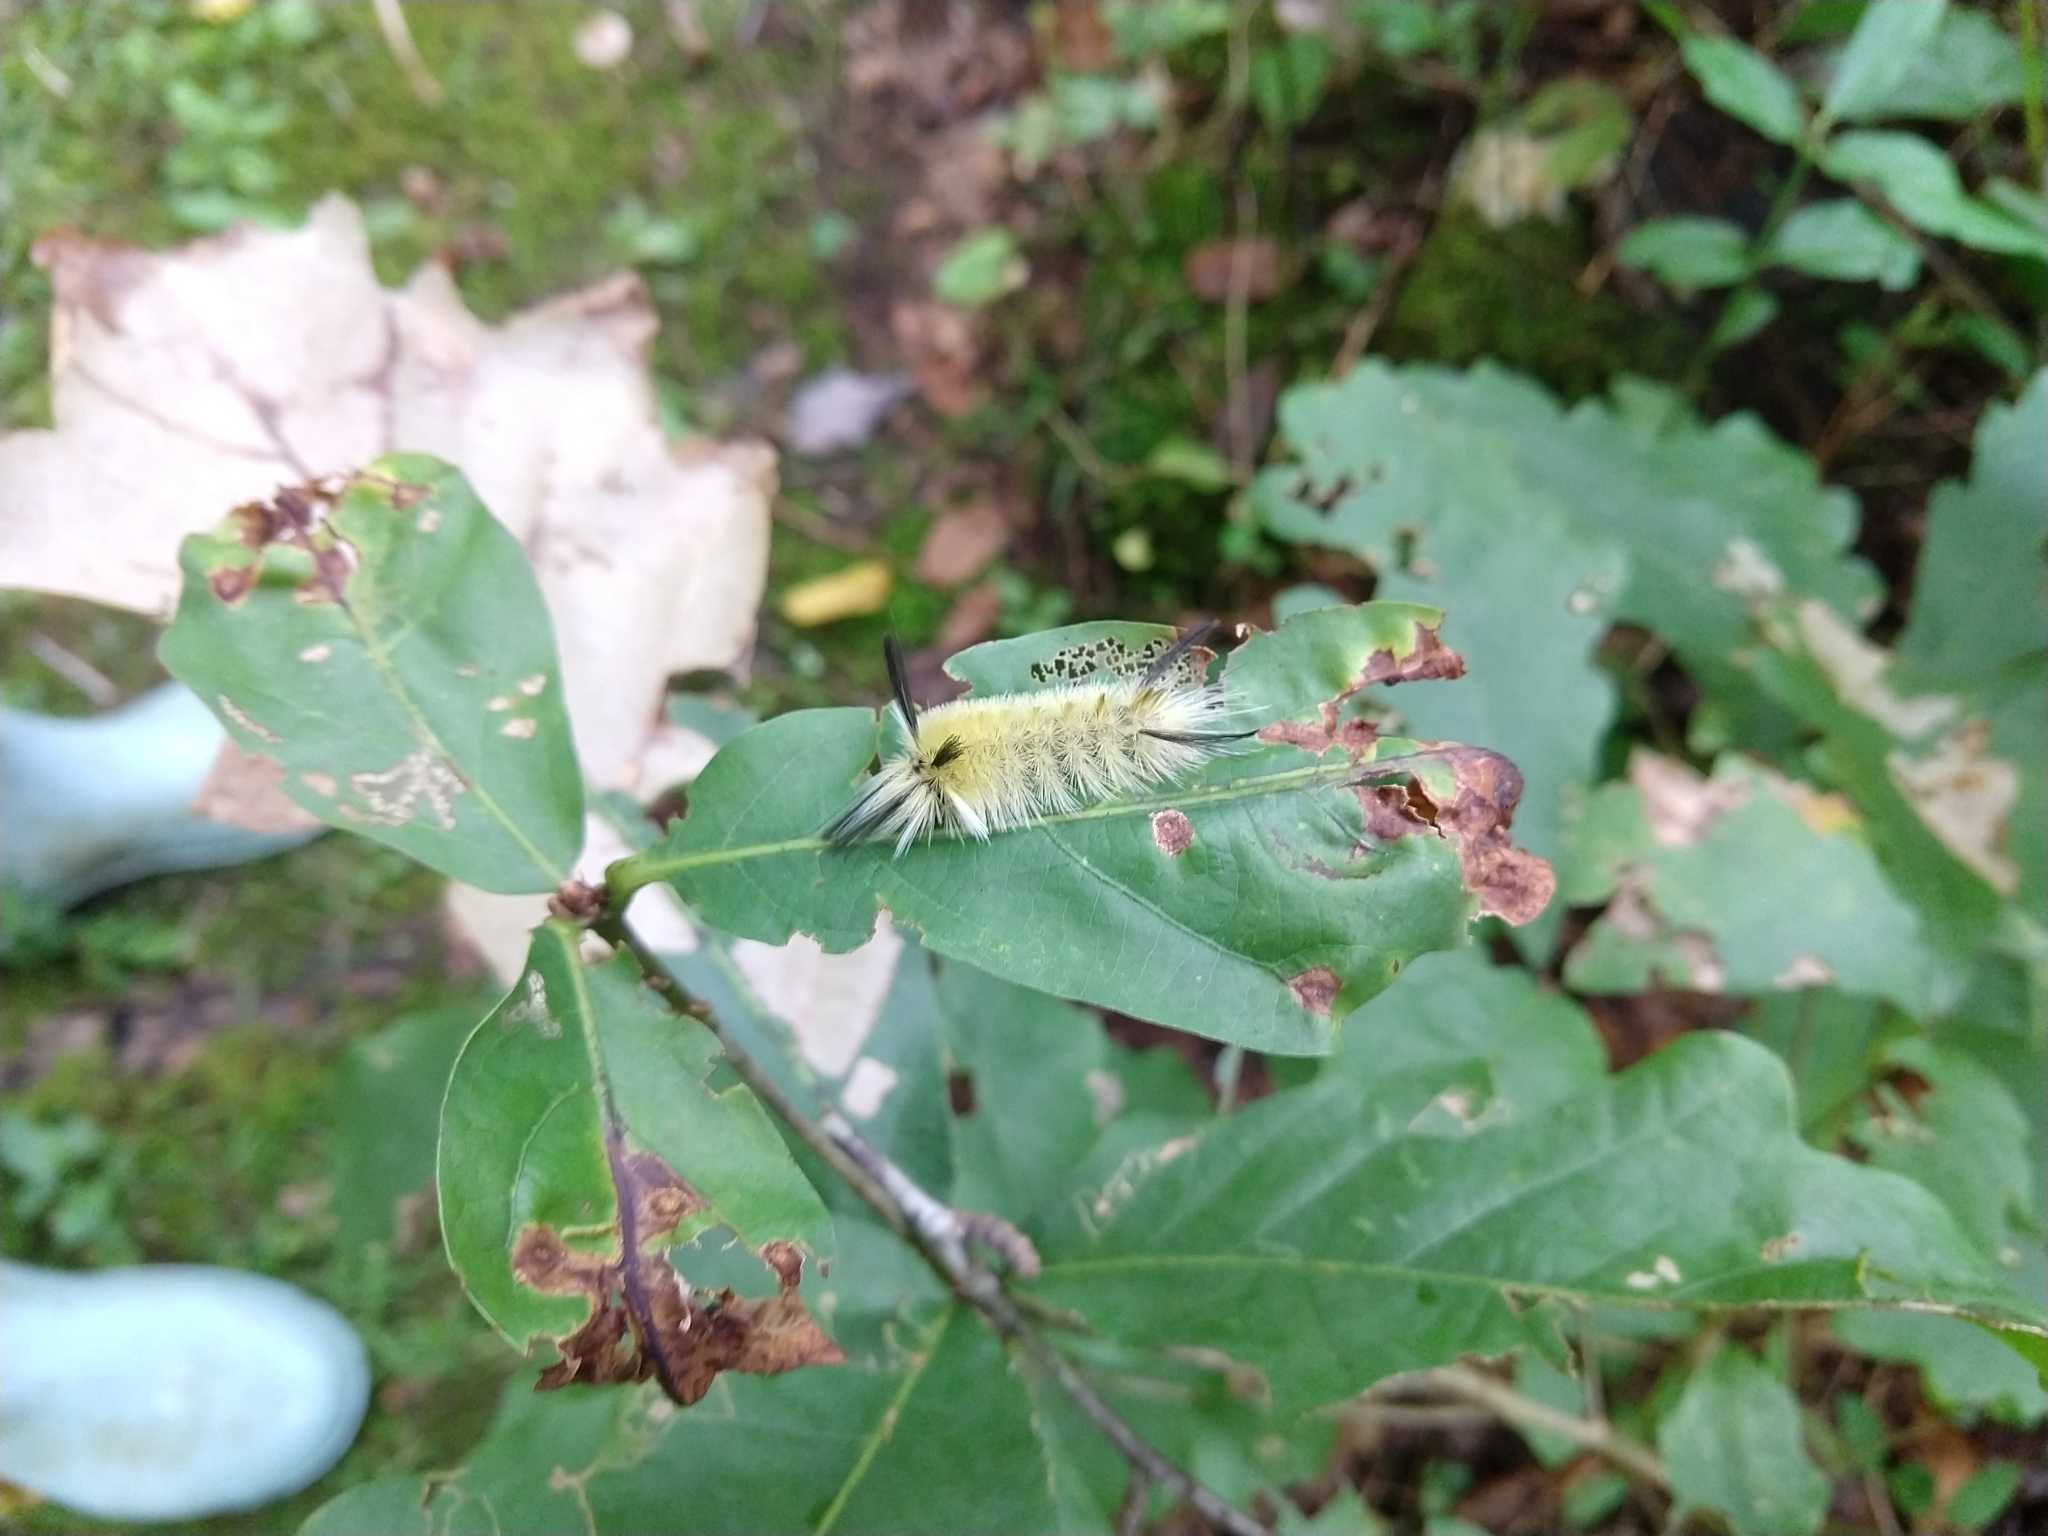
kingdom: Animalia
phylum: Arthropoda
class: Insecta
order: Lepidoptera
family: Erebidae
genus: Halysidota
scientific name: Halysidota tessellaris
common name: Banded tussock moth
